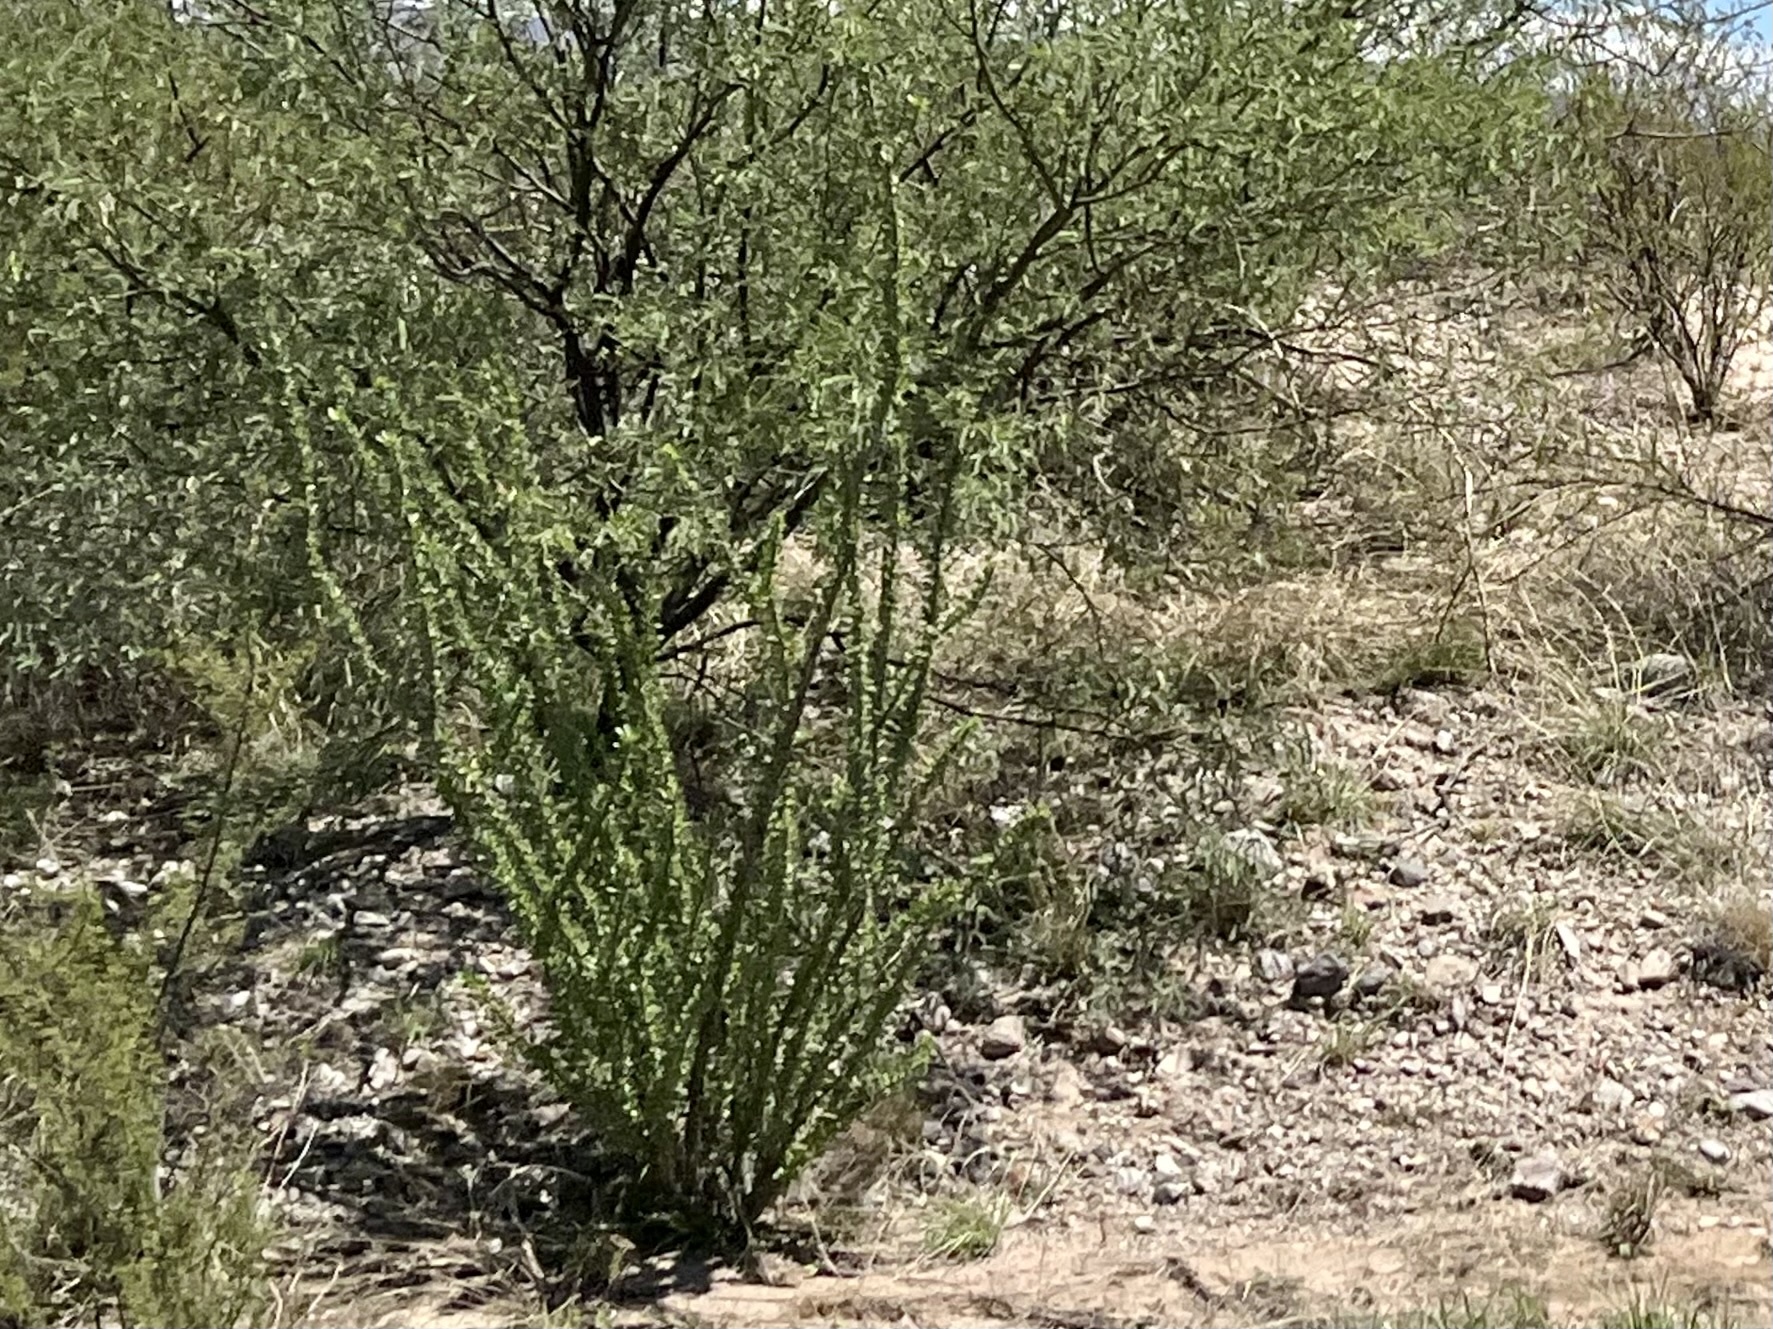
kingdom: Plantae
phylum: Tracheophyta
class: Magnoliopsida
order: Ericales
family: Fouquieriaceae
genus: Fouquieria
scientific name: Fouquieria splendens
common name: Vine-cactus
